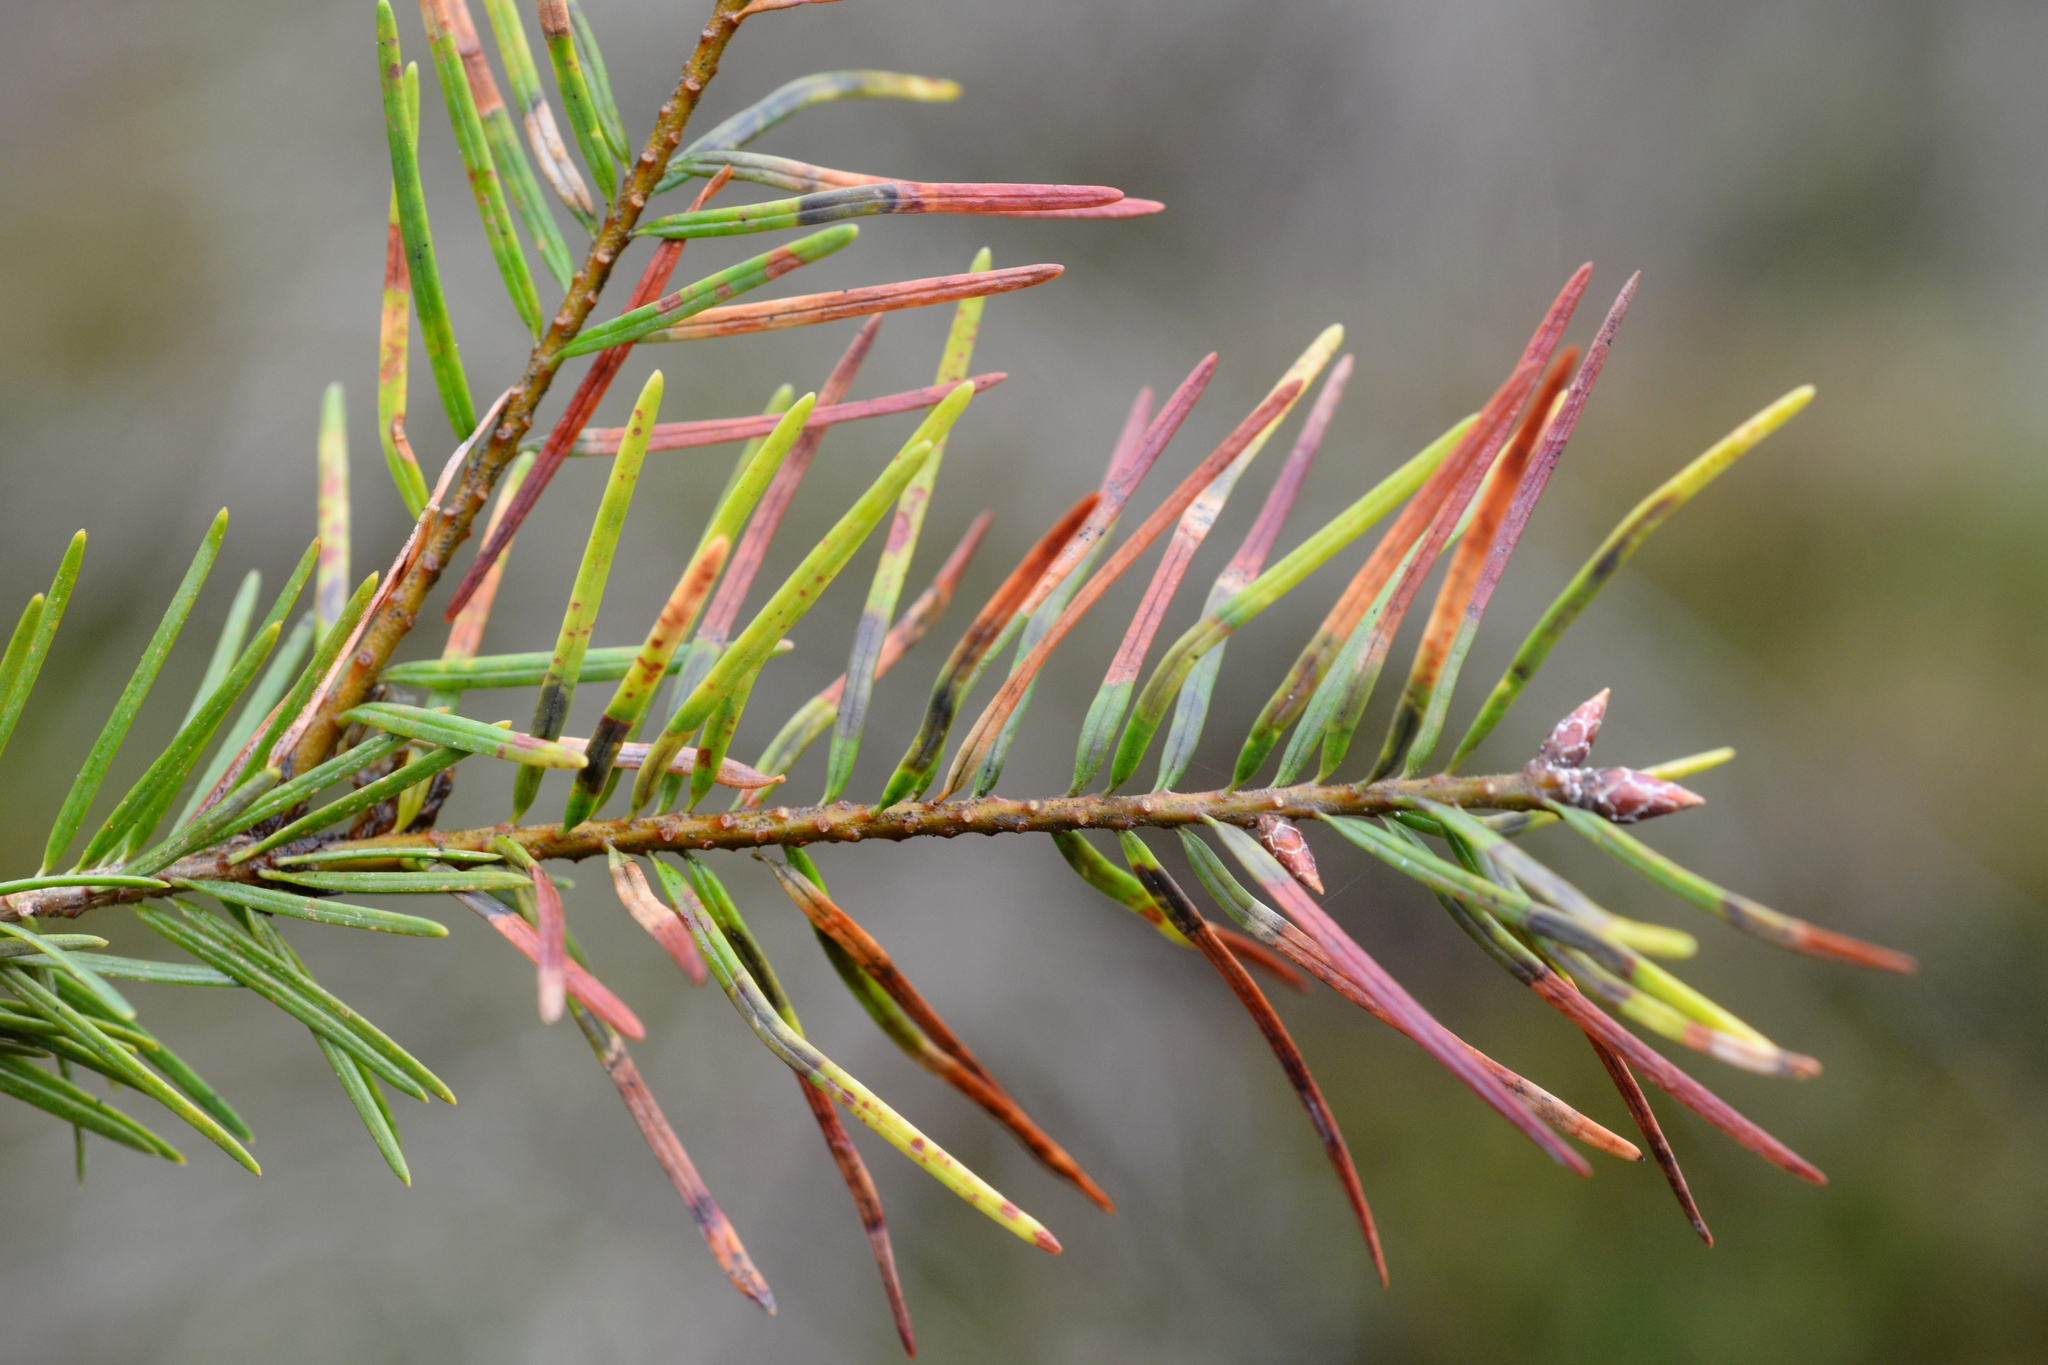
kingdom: Animalia
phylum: Arthropoda
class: Insecta
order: Diptera
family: Cecidomyiidae
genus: Contarinia
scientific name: Contarinia pseudotsugae
